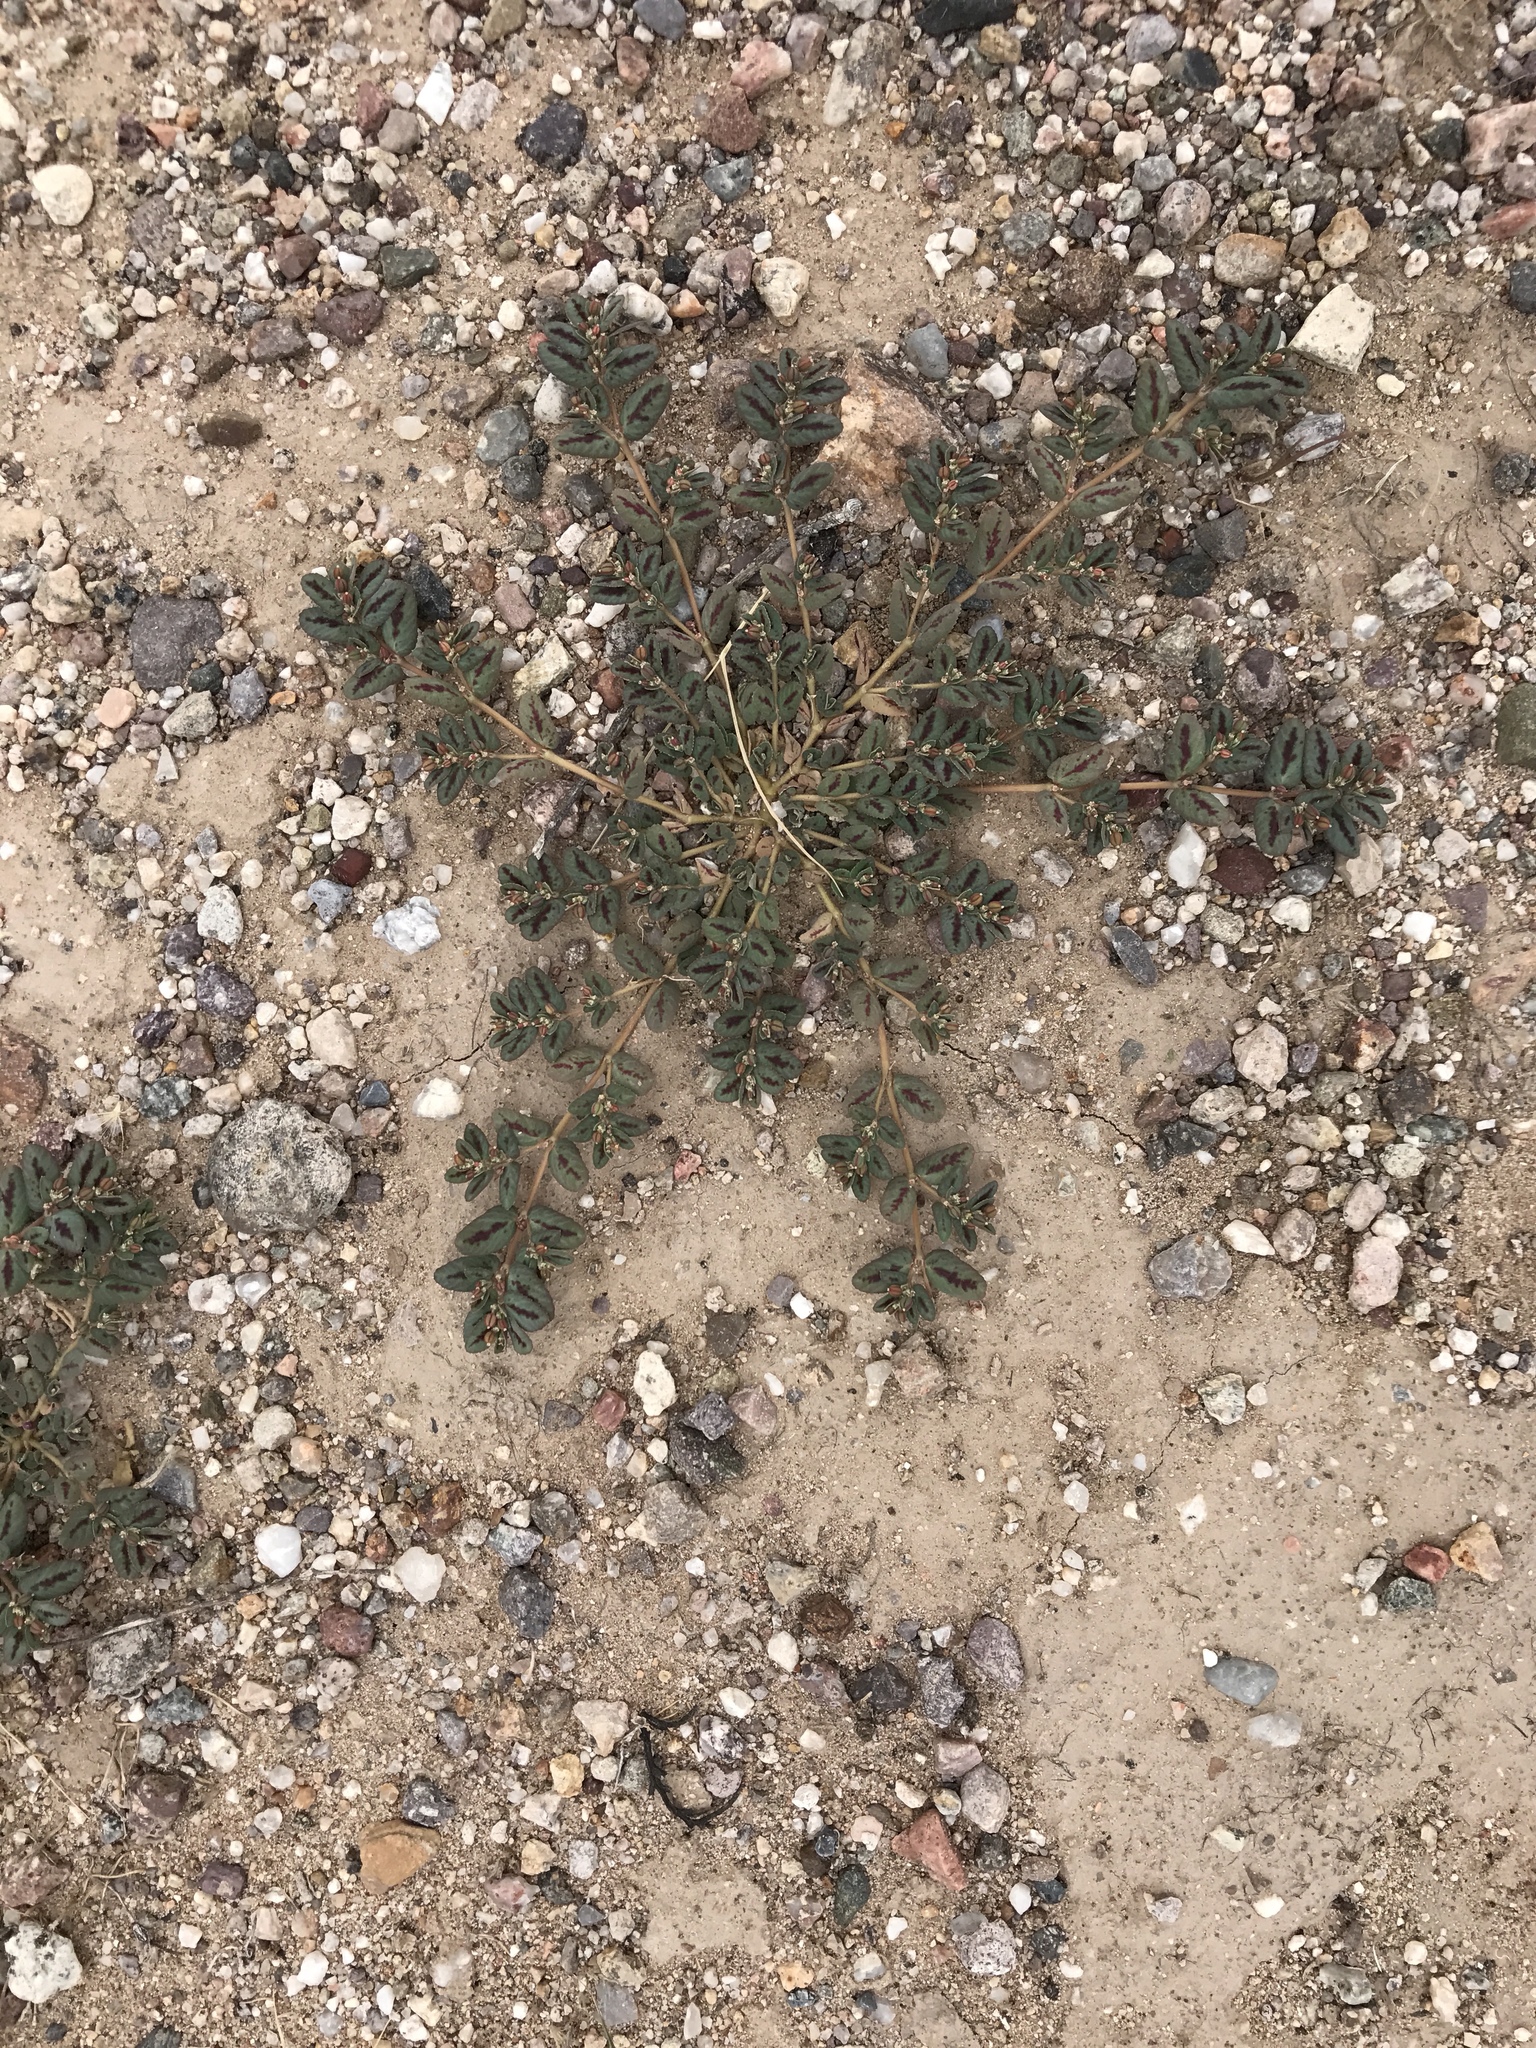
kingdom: Plantae
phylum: Tracheophyta
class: Magnoliopsida
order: Malpighiales
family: Euphorbiaceae
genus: Euphorbia
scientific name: Euphorbia abramsiana
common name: Abram's spurge
